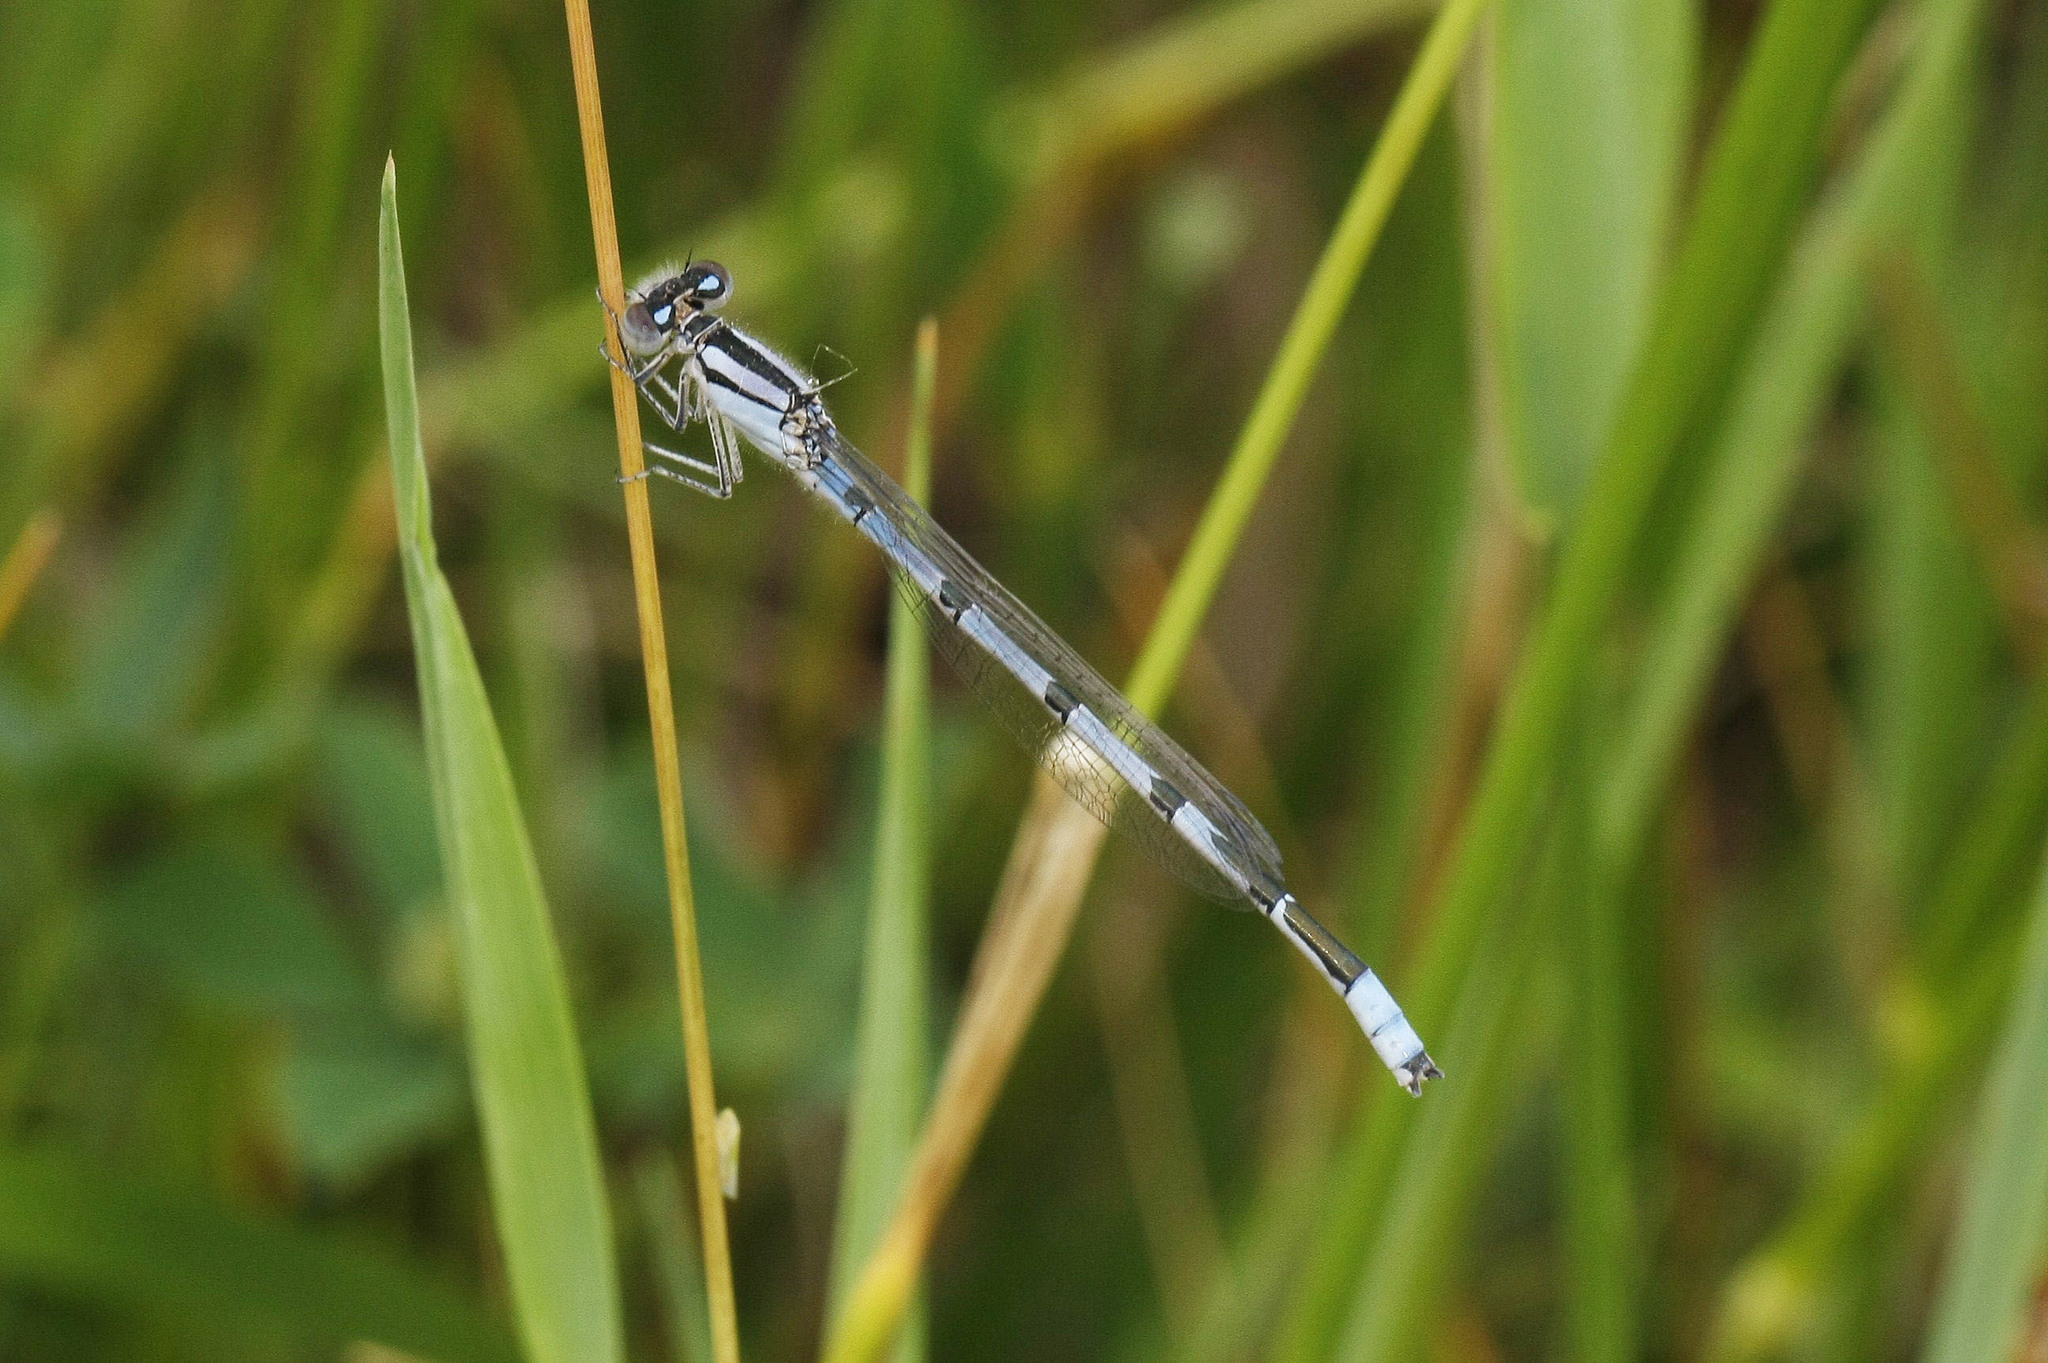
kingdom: Animalia
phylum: Arthropoda
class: Insecta
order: Odonata
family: Coenagrionidae
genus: Enallagma
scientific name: Enallagma civile
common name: Damselfly
